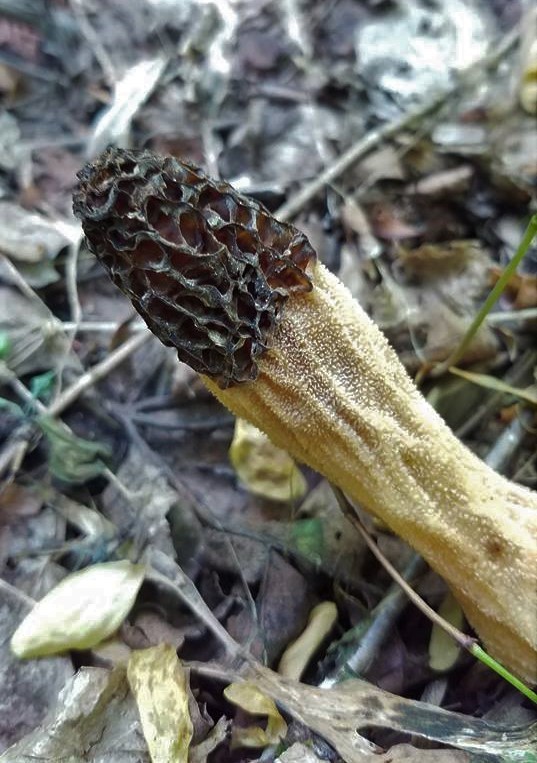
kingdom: Fungi
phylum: Ascomycota
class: Pezizomycetes
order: Pezizales
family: Morchellaceae
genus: Morchella
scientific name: Morchella angusticeps
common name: Black morel
